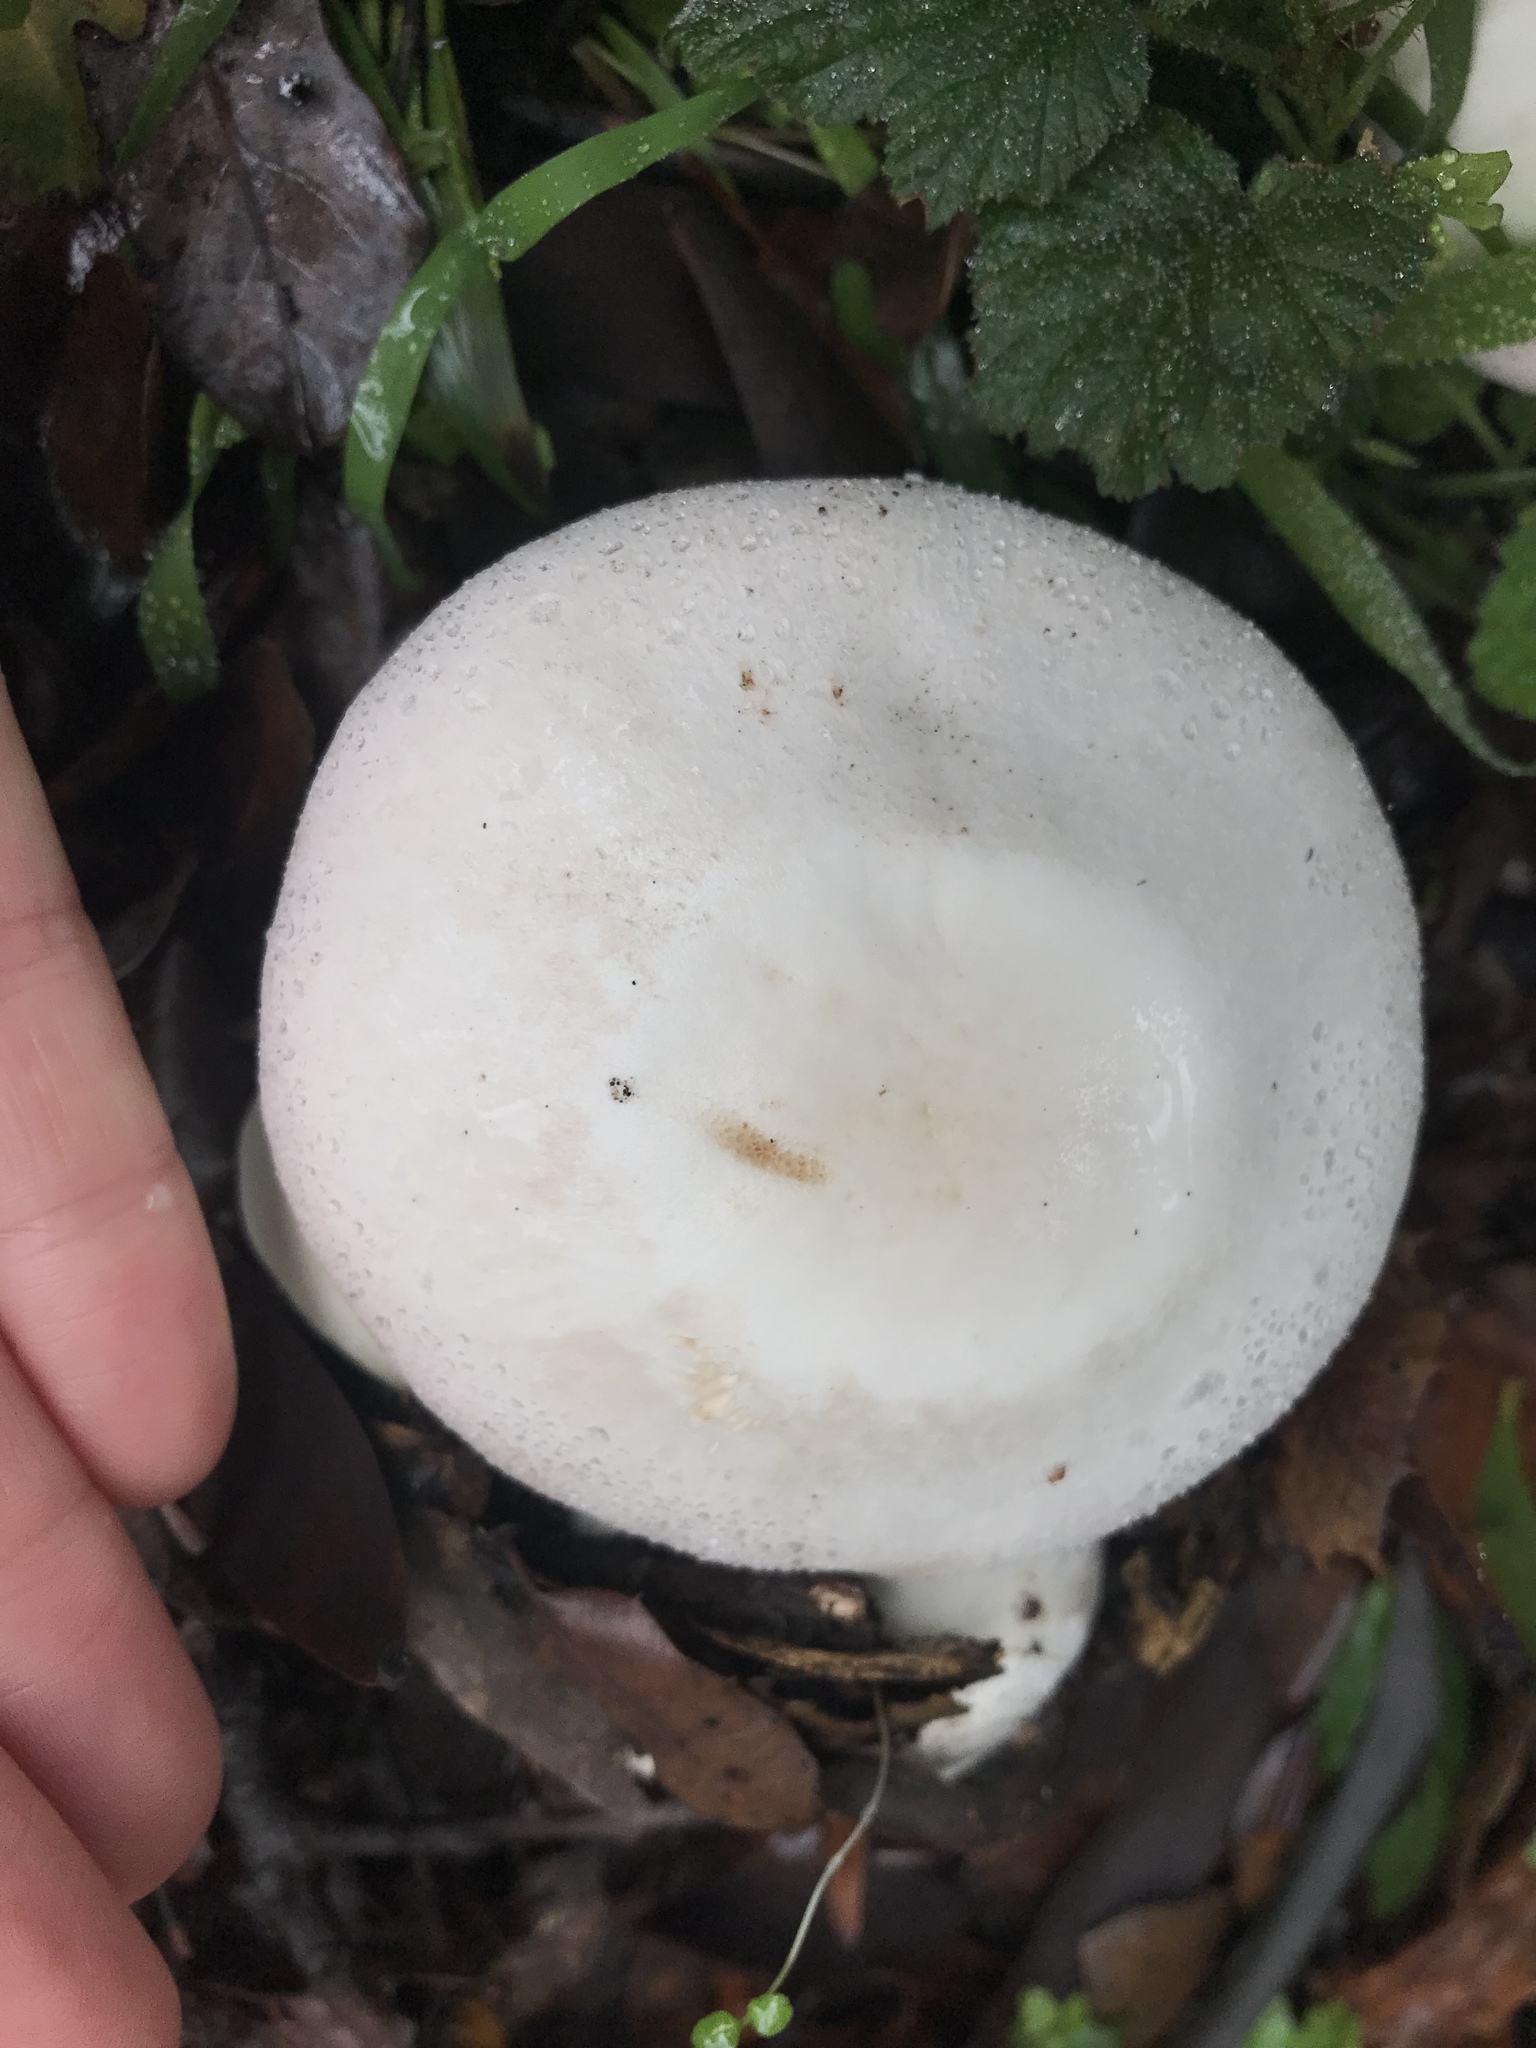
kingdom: Fungi
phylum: Basidiomycota
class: Agaricomycetes
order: Agaricales
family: Agaricaceae
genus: Agaricus
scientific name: Agaricus xanthodermus
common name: Yellow stainer
